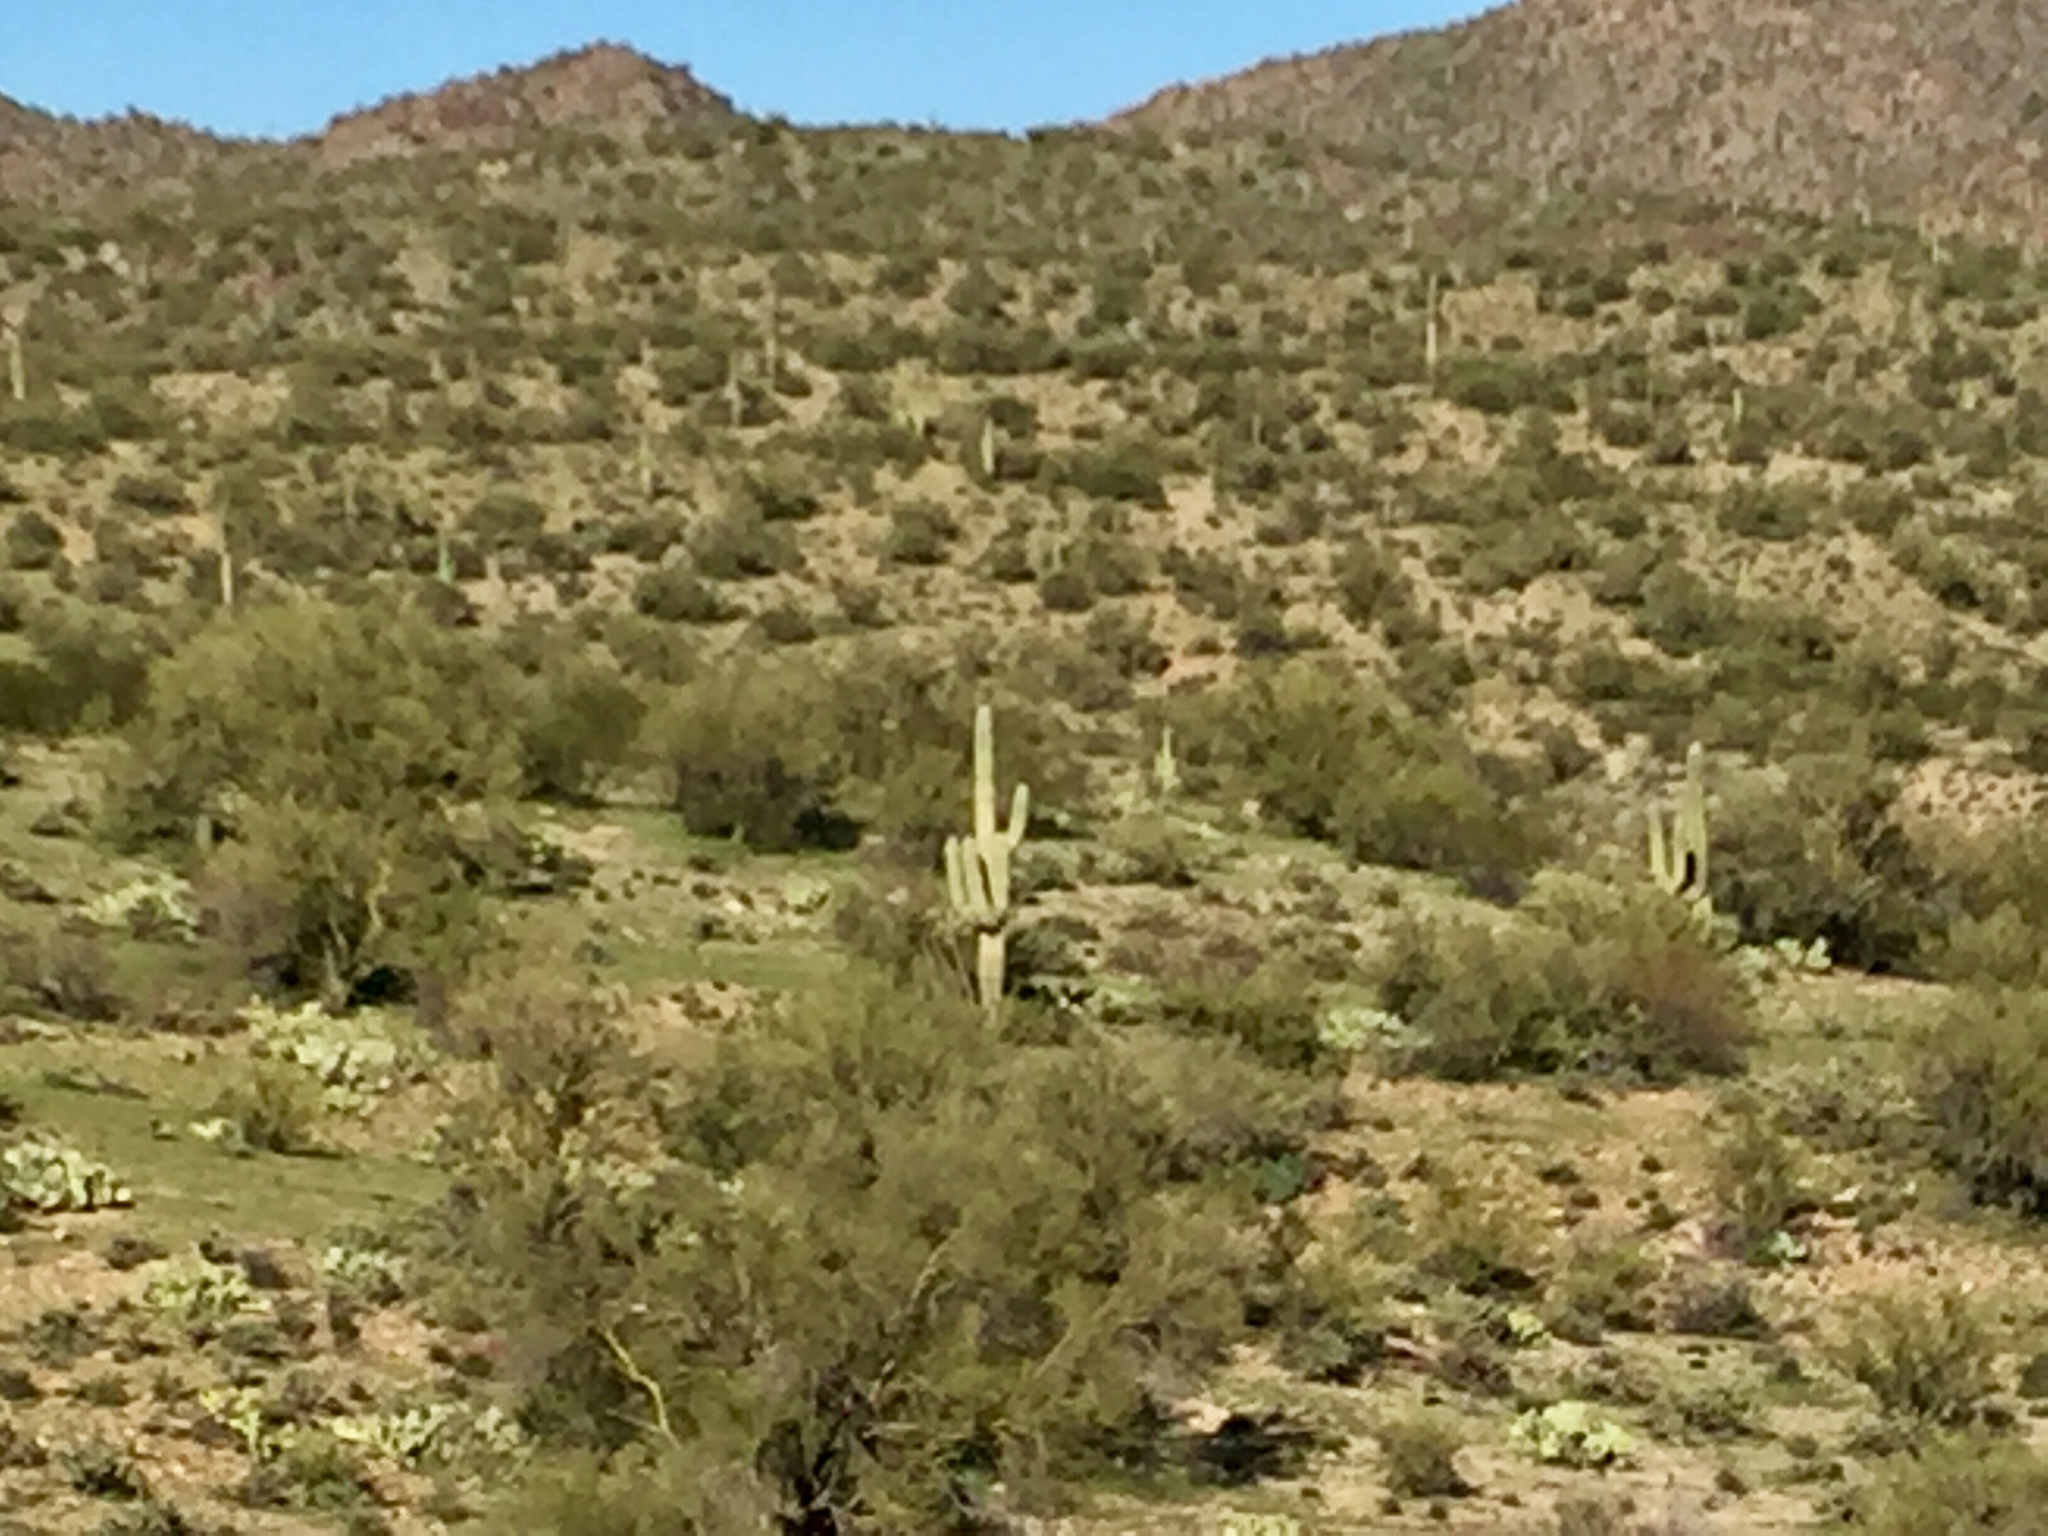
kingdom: Plantae
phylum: Tracheophyta
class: Magnoliopsida
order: Caryophyllales
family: Cactaceae
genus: Carnegiea
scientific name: Carnegiea gigantea
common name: Saguaro
